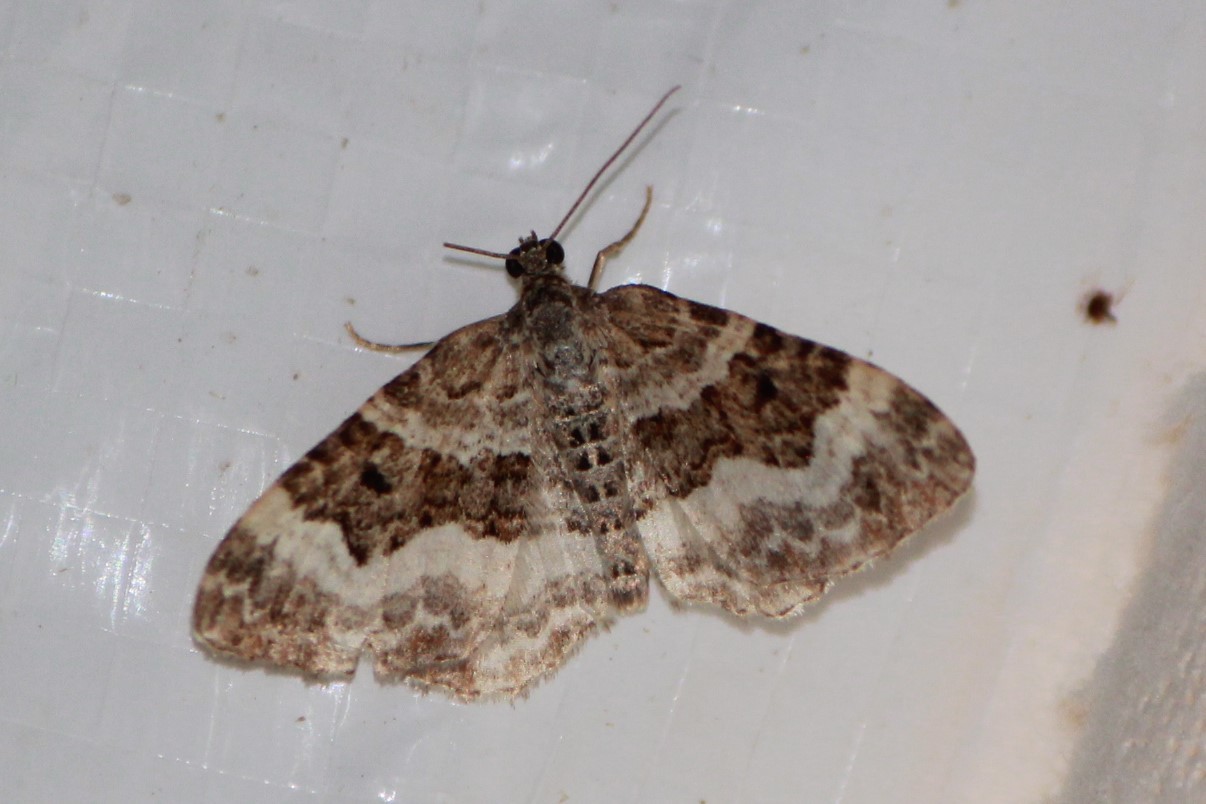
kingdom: Animalia
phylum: Arthropoda
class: Insecta
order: Lepidoptera
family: Geometridae
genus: Epirrhoe
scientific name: Epirrhoe alternata
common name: Common carpet
